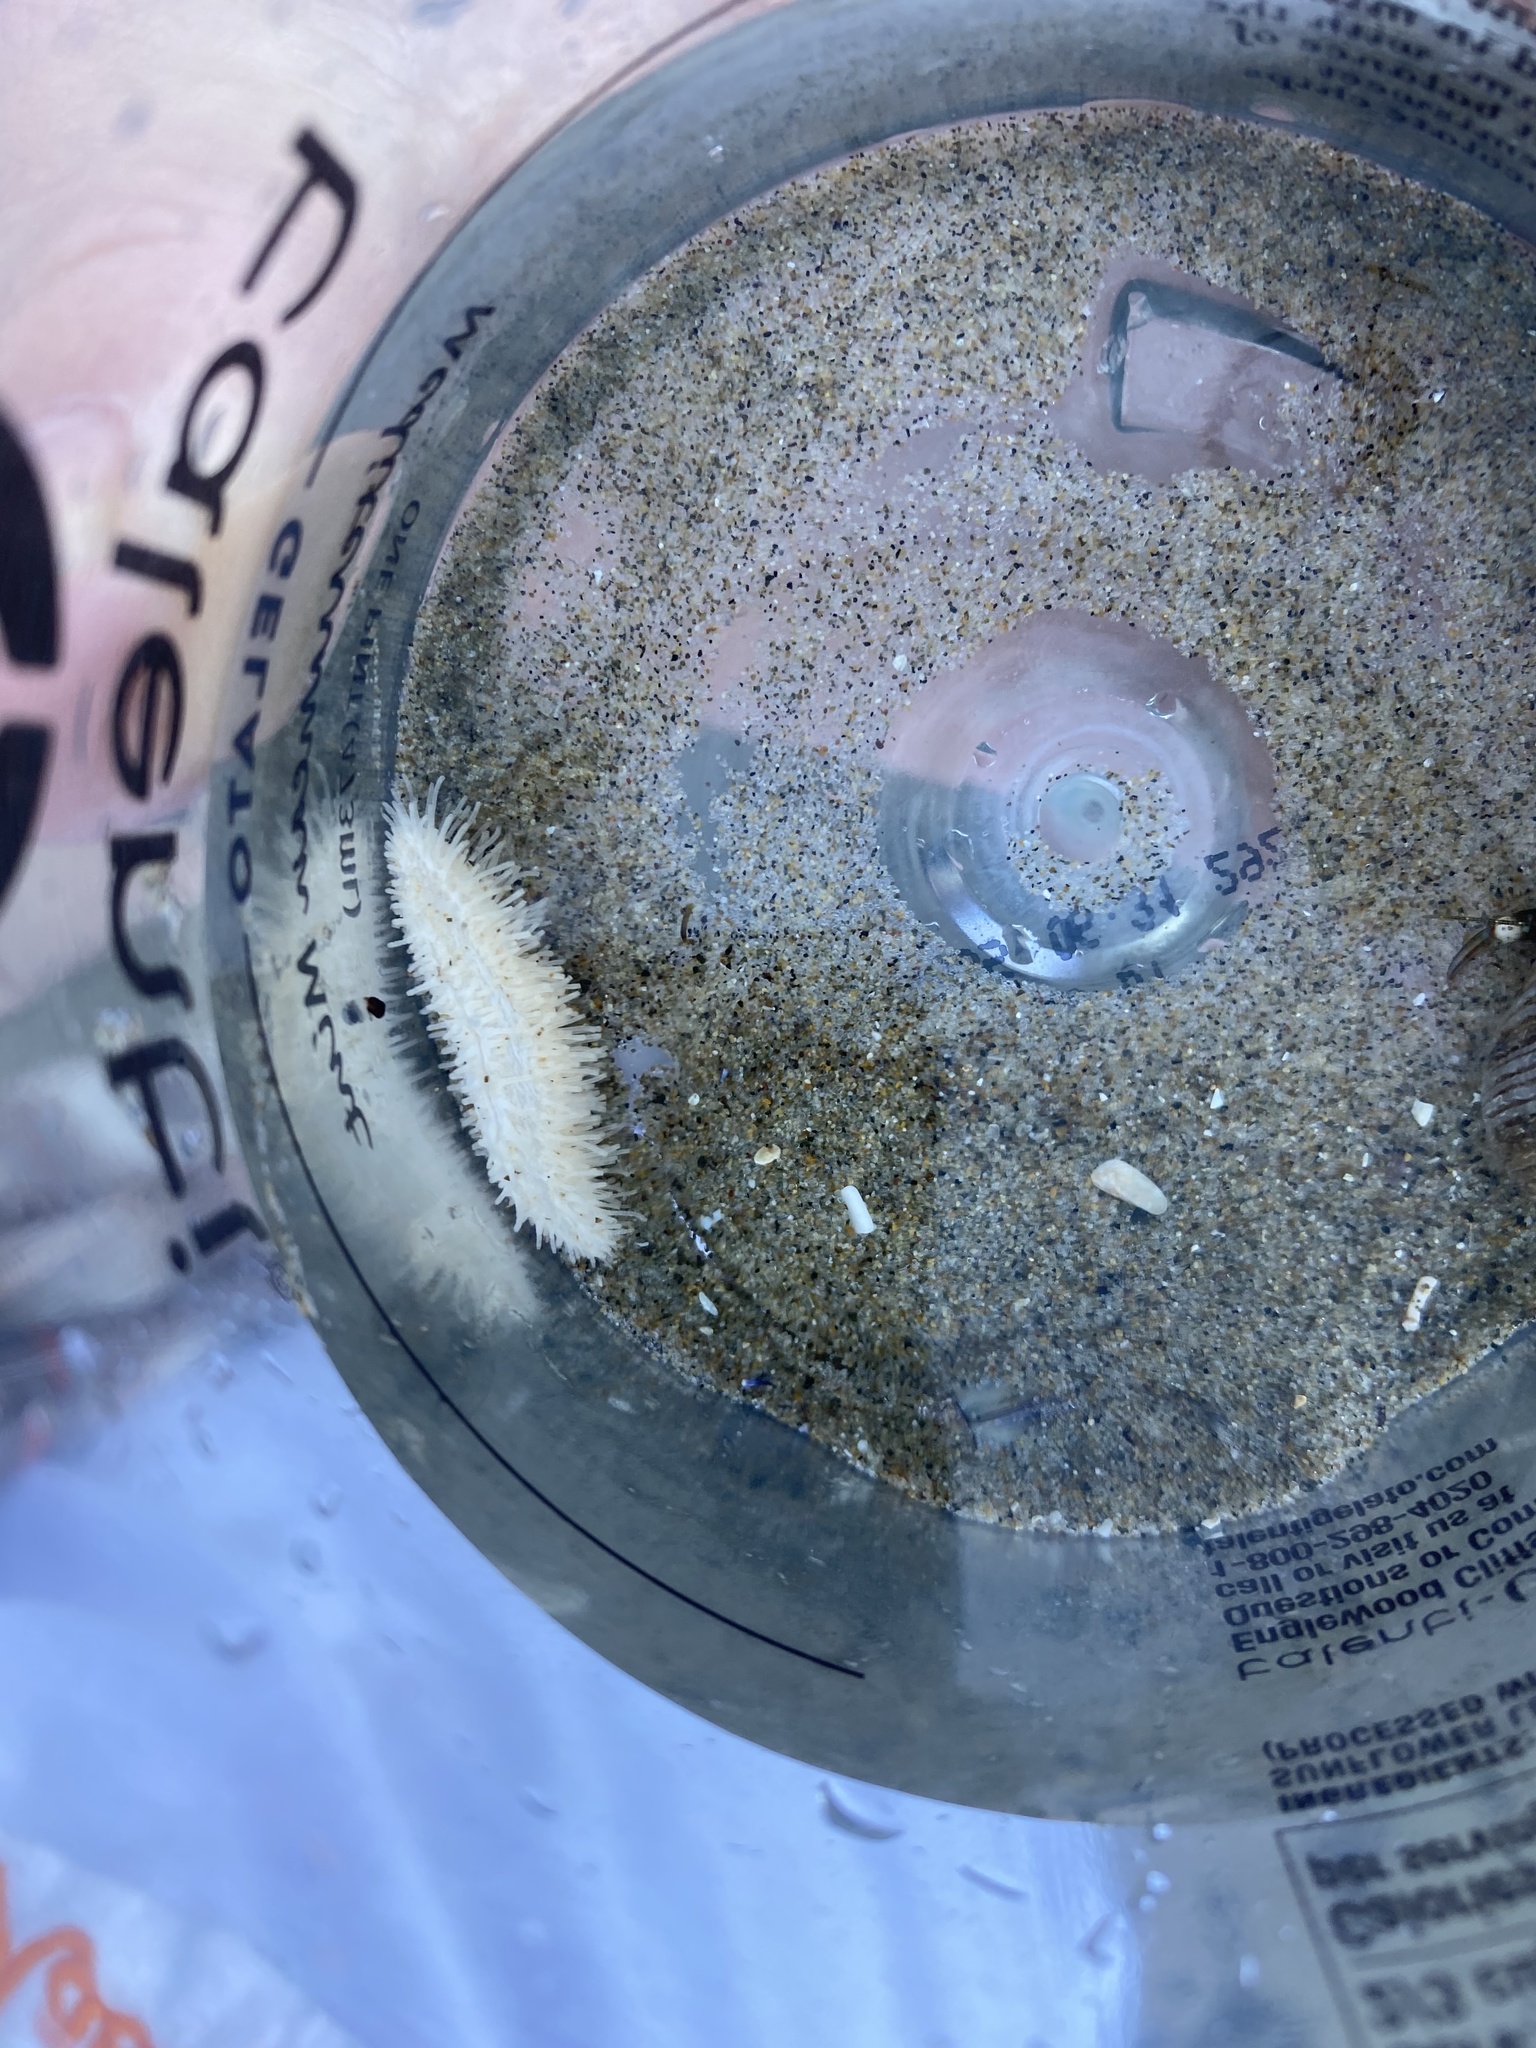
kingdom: Animalia
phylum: Echinodermata
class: Holothuroidea
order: Dendrochirotida
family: Sclerodactylidae
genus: Eupentacta
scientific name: Eupentacta quinquesemita
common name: Pentamerous sea cucumber
